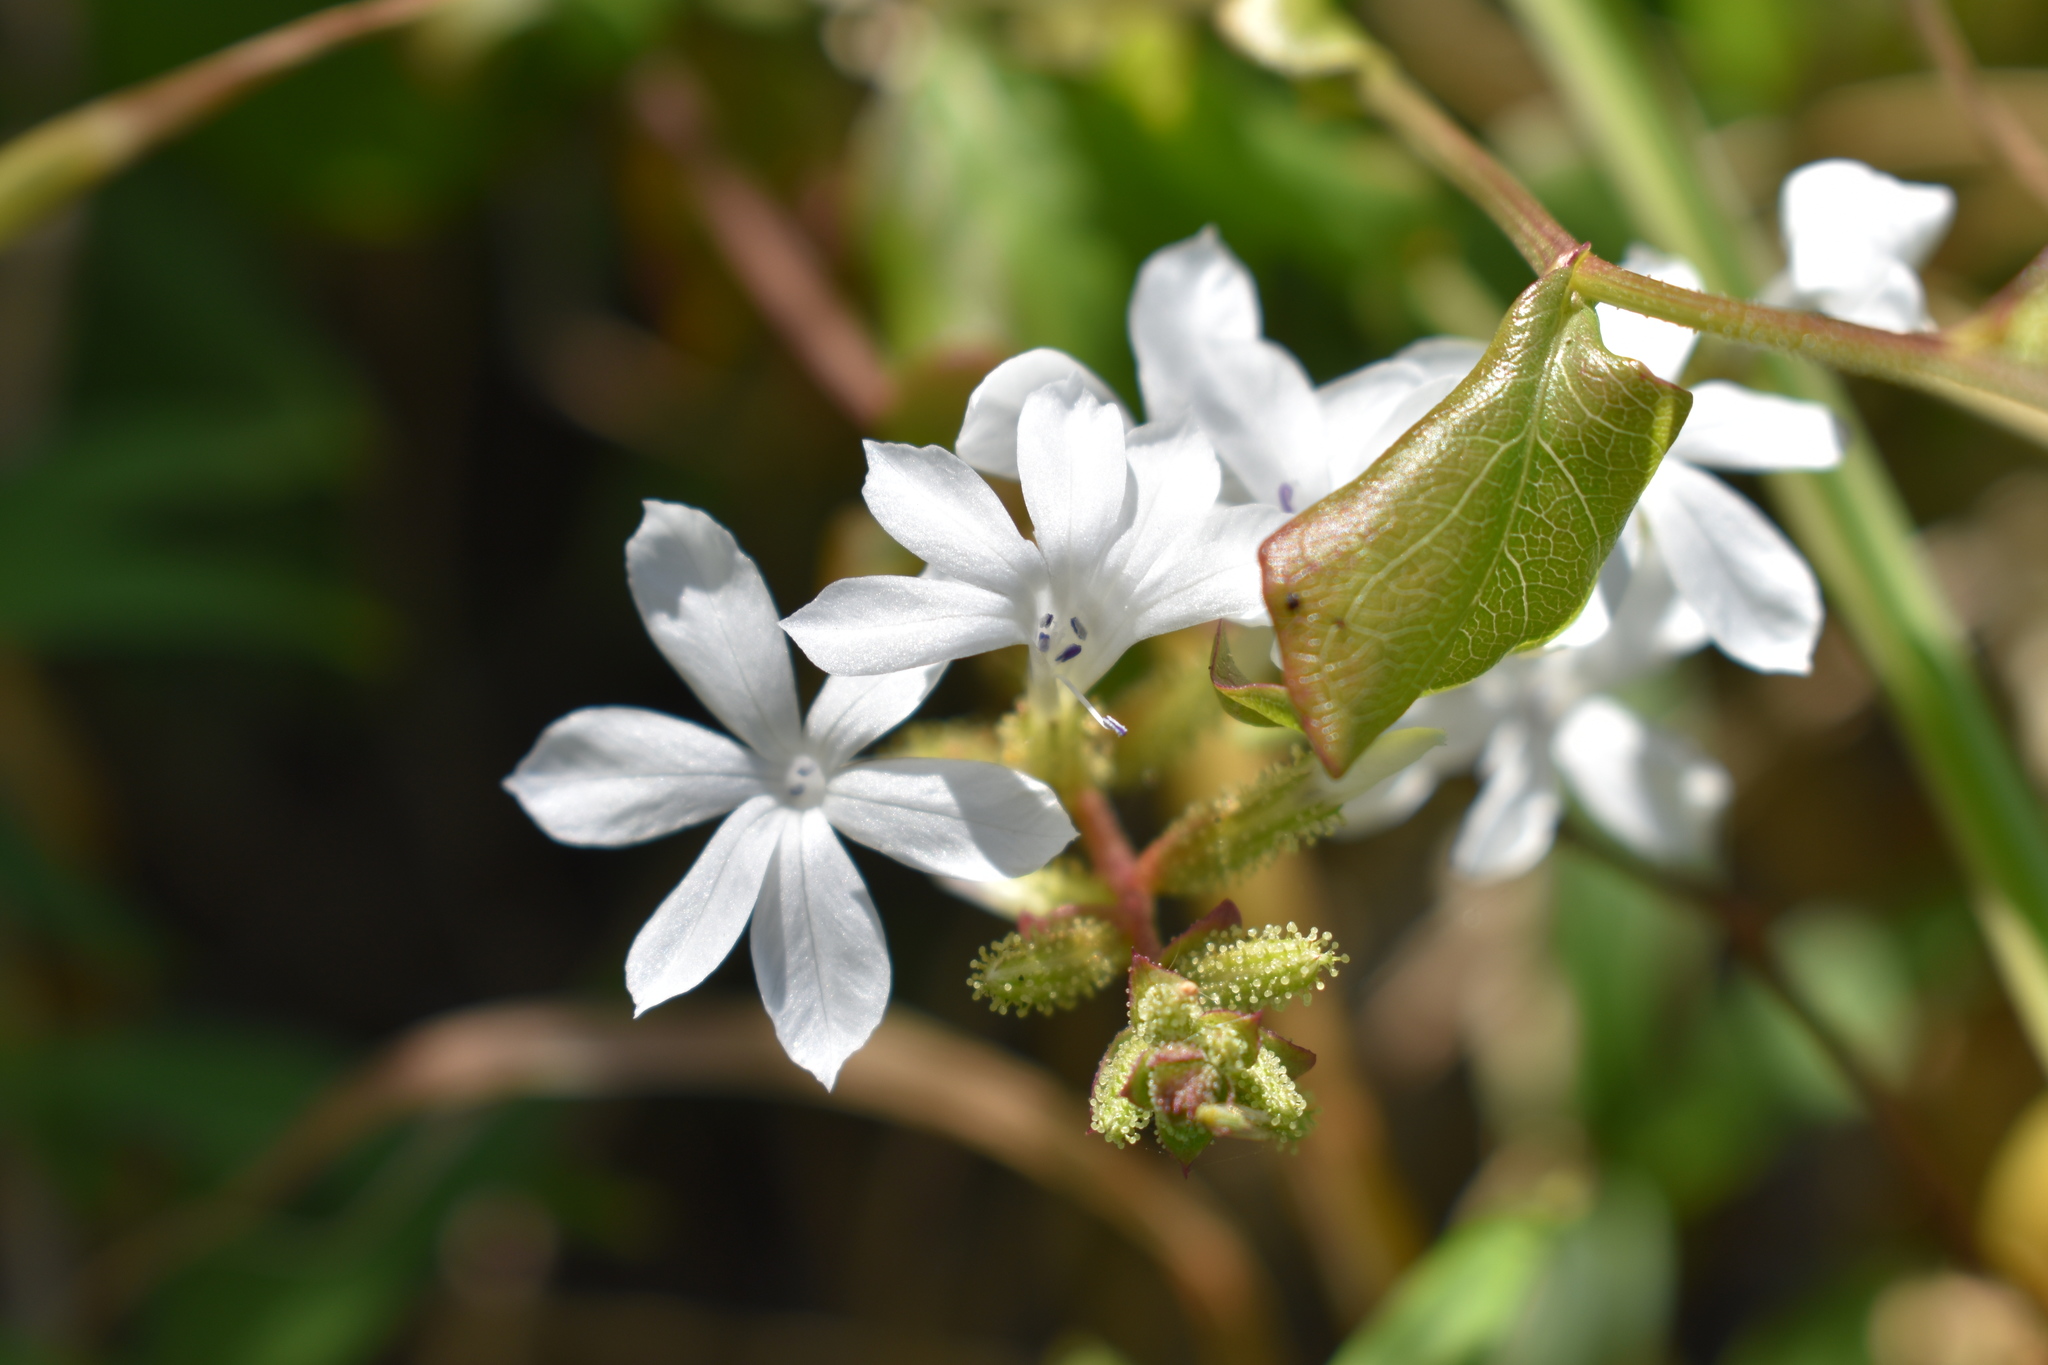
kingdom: Plantae
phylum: Tracheophyta
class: Magnoliopsida
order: Caryophyllales
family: Plumbaginaceae
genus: Plumbago
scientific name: Plumbago zeylanica
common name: Doctorbush
